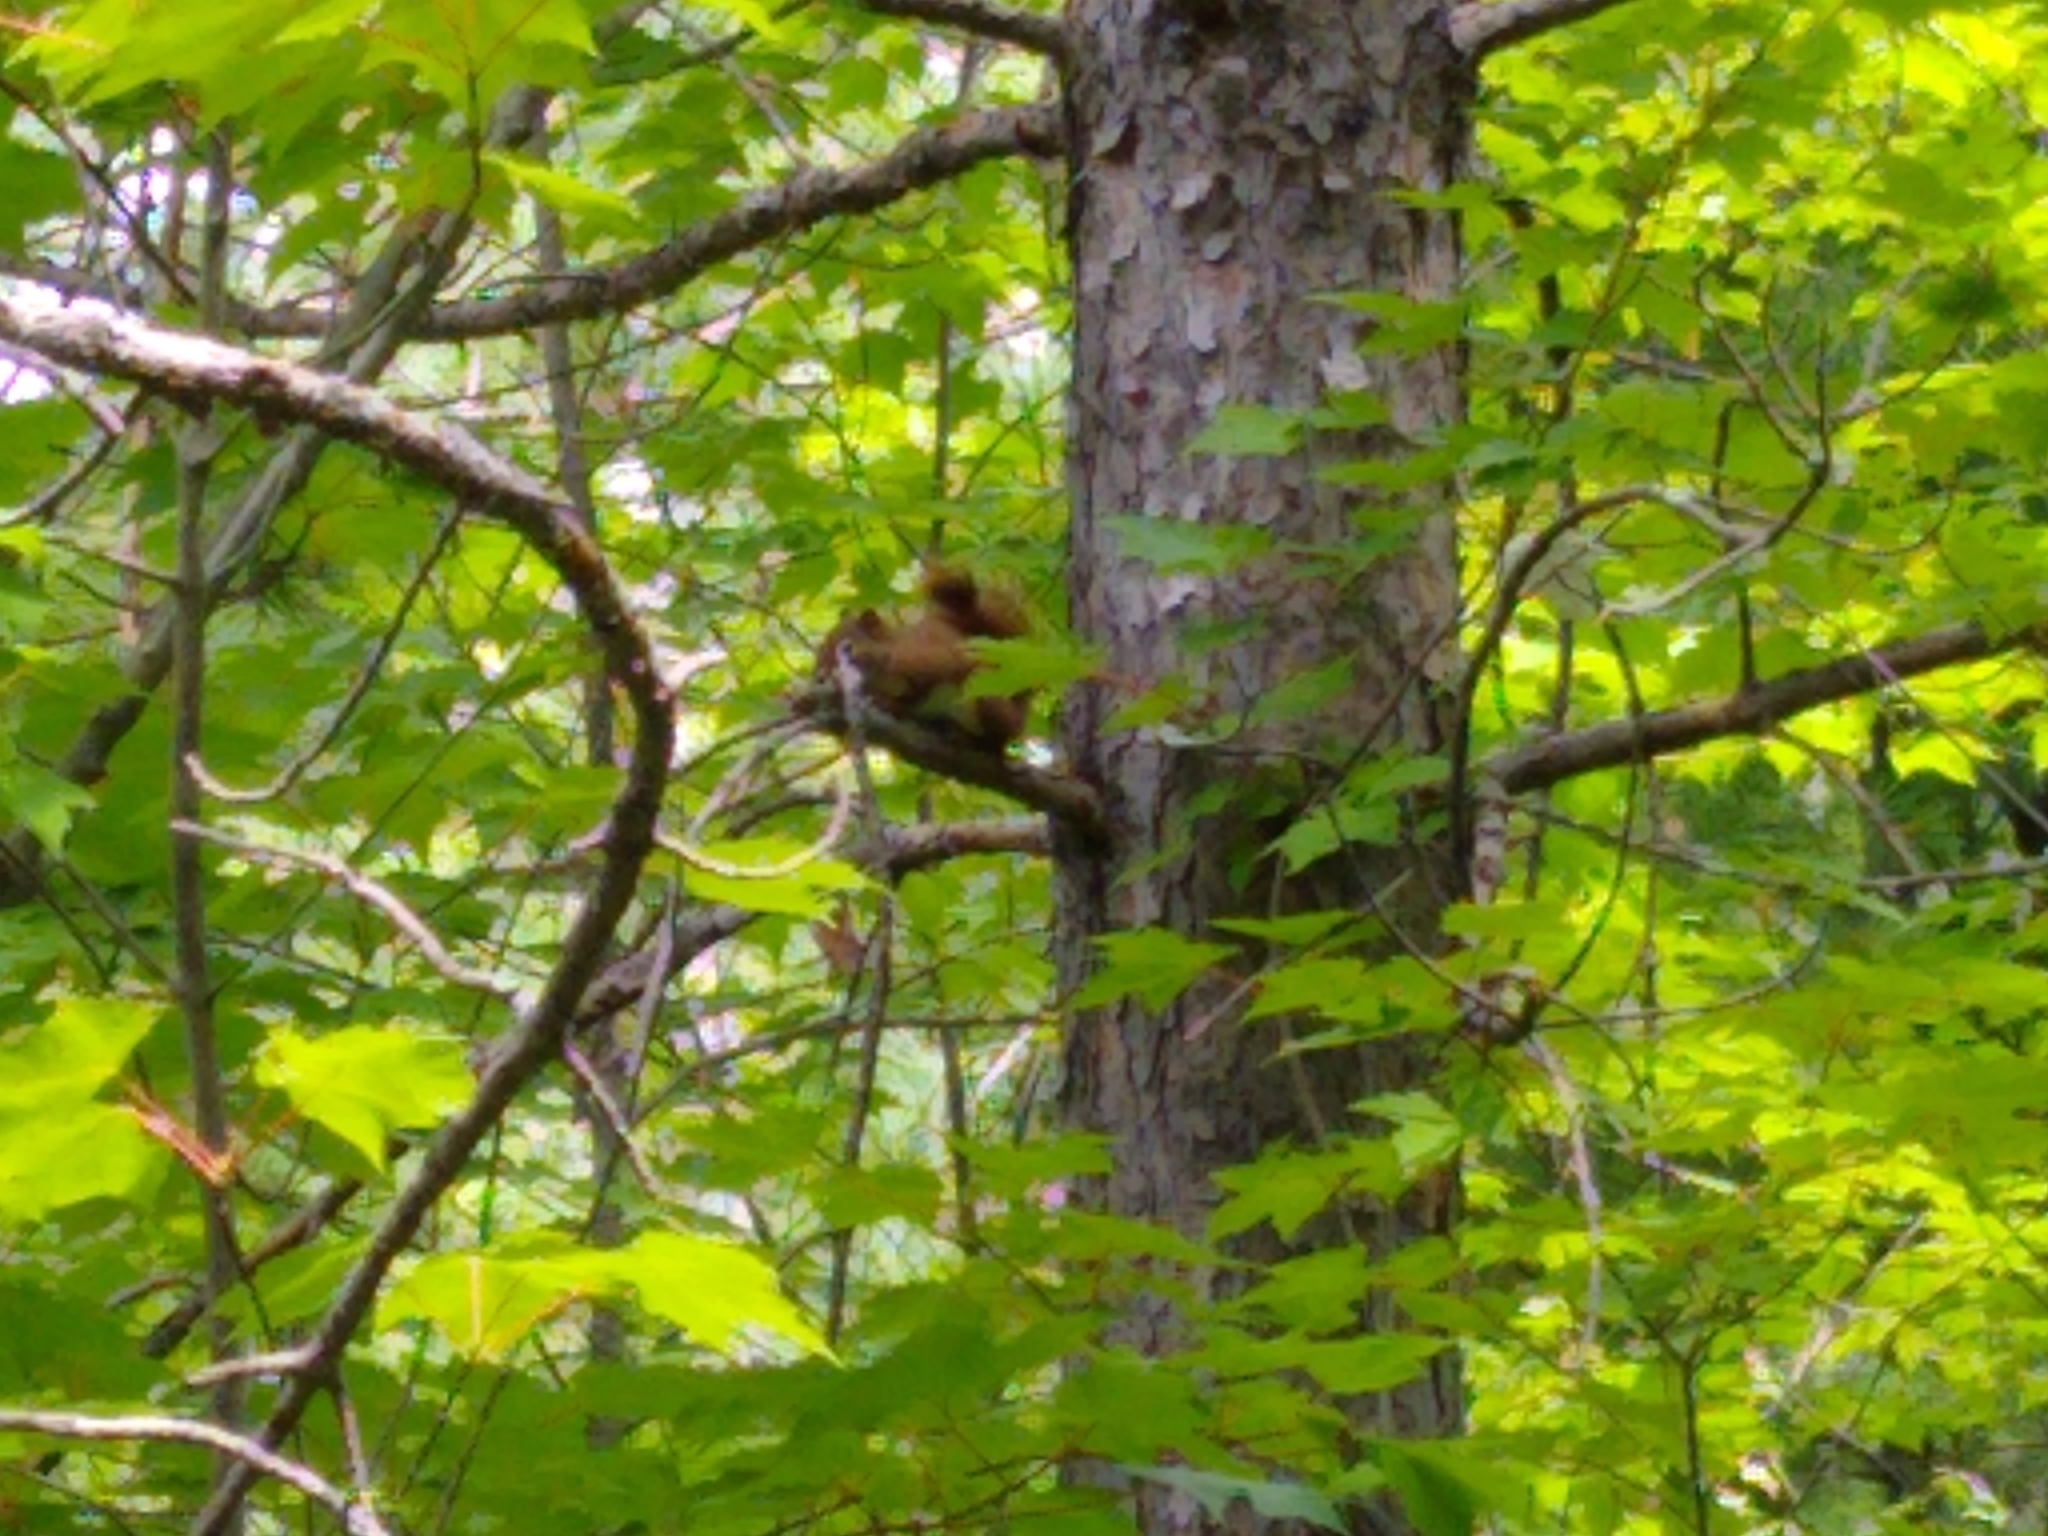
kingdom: Animalia
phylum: Chordata
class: Mammalia
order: Rodentia
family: Sciuridae
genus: Tamiasciurus
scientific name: Tamiasciurus hudsonicus
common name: Red squirrel
